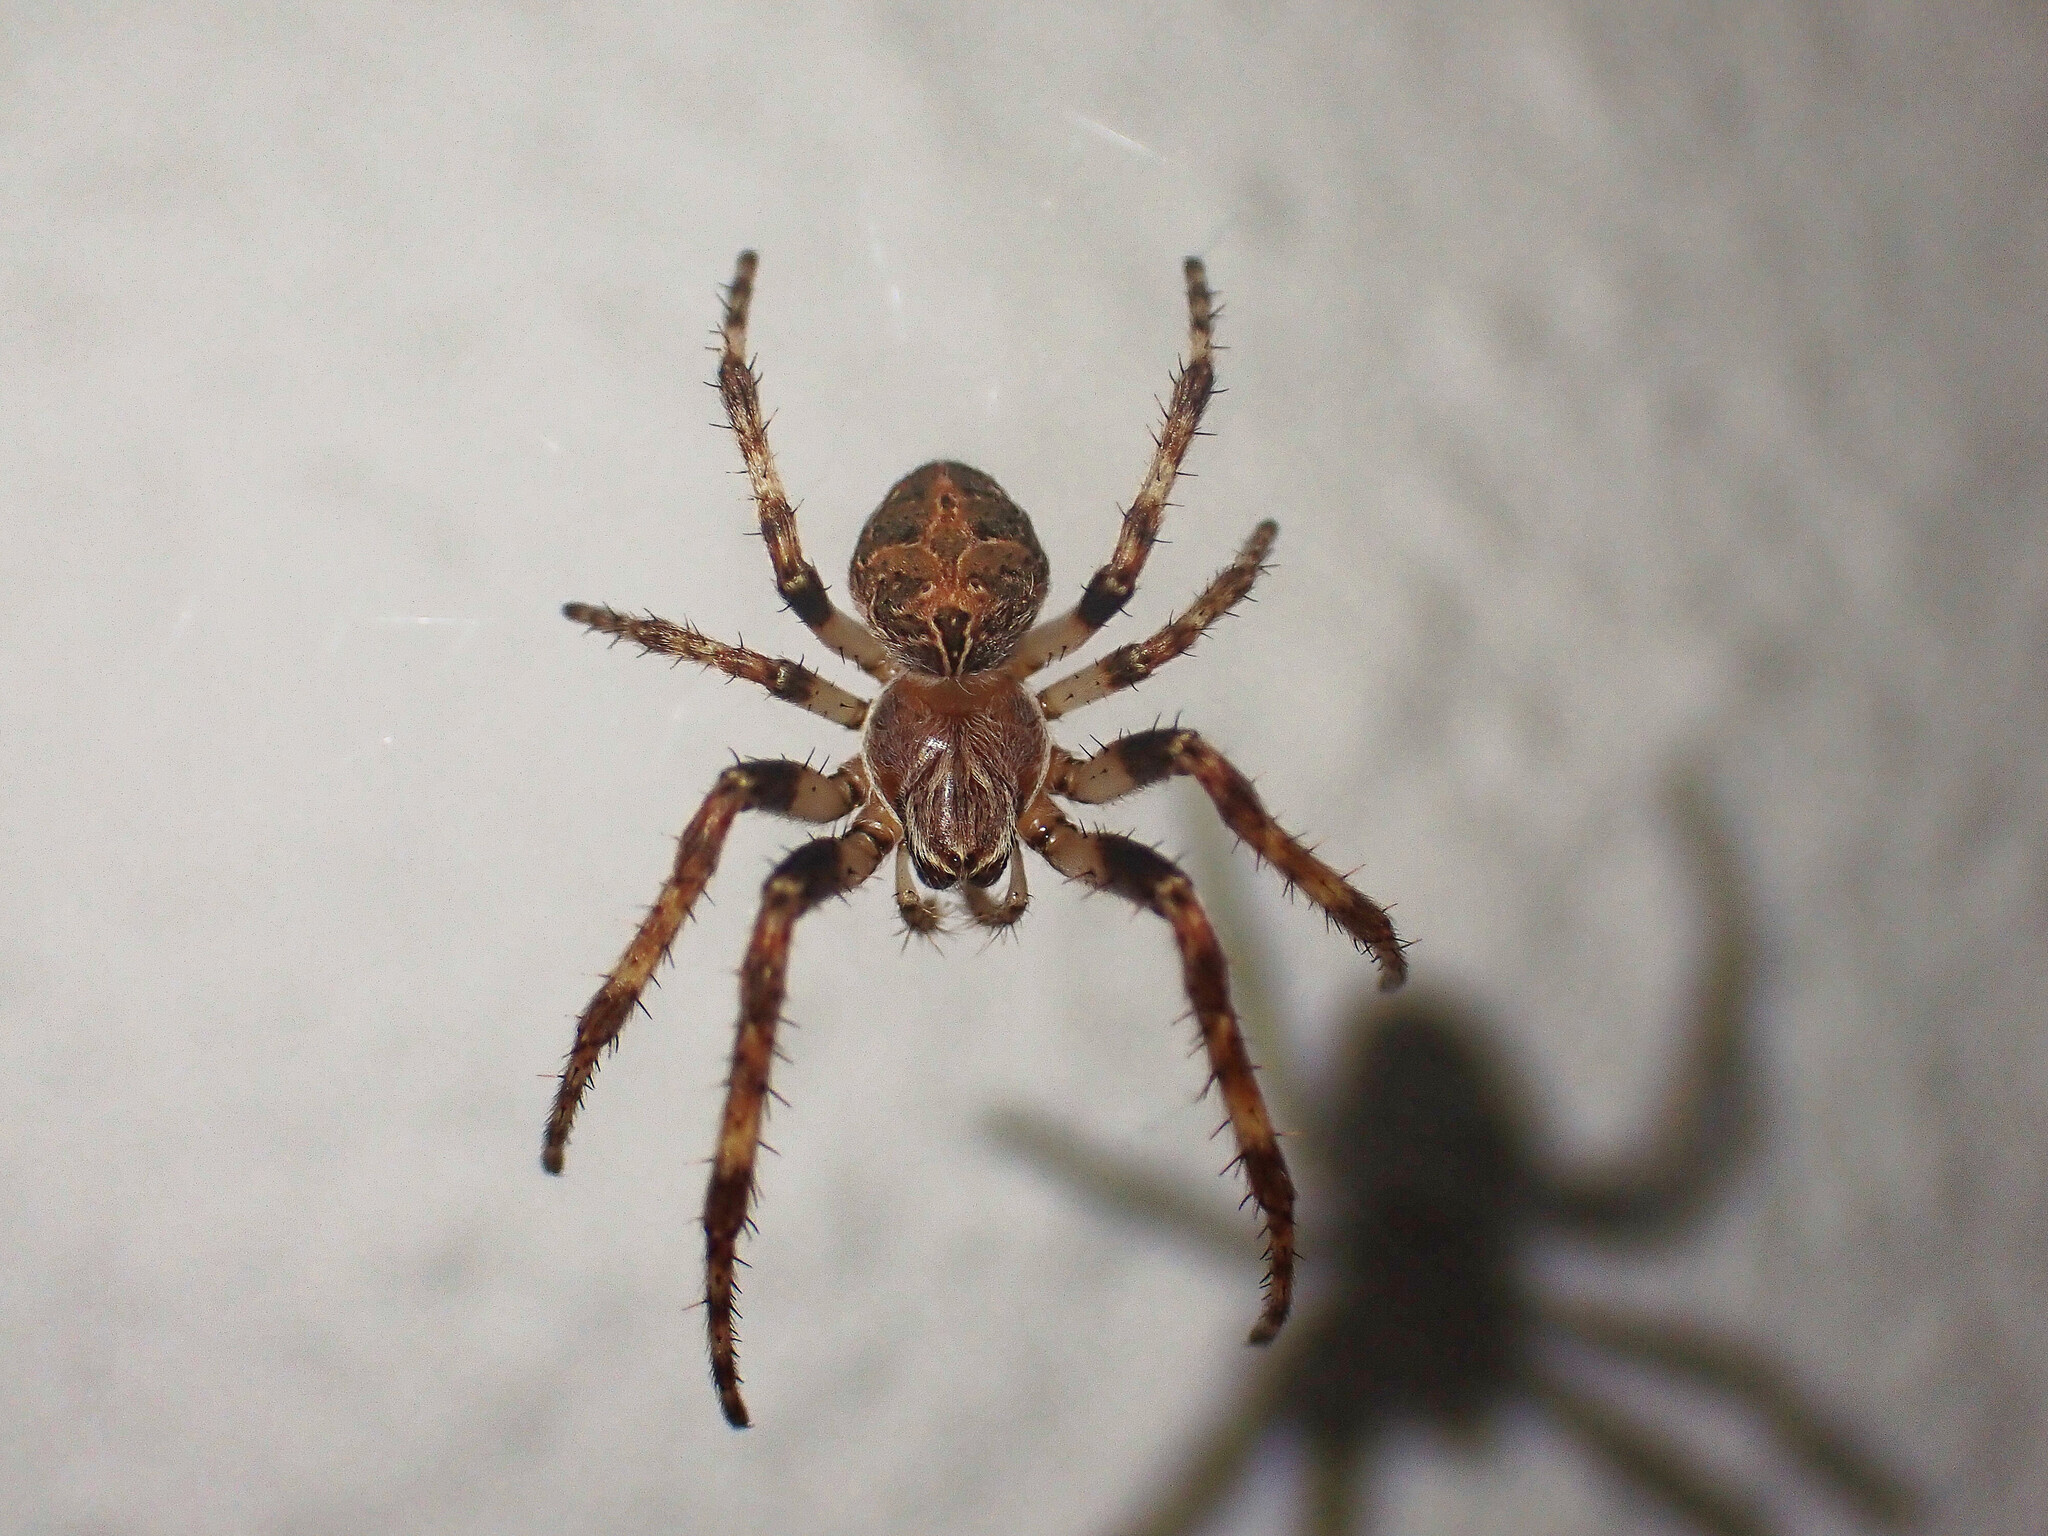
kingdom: Animalia
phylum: Arthropoda
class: Arachnida
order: Araneae
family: Araneidae
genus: Larinioides
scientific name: Larinioides sclopetarius
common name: Bridge orbweaver
